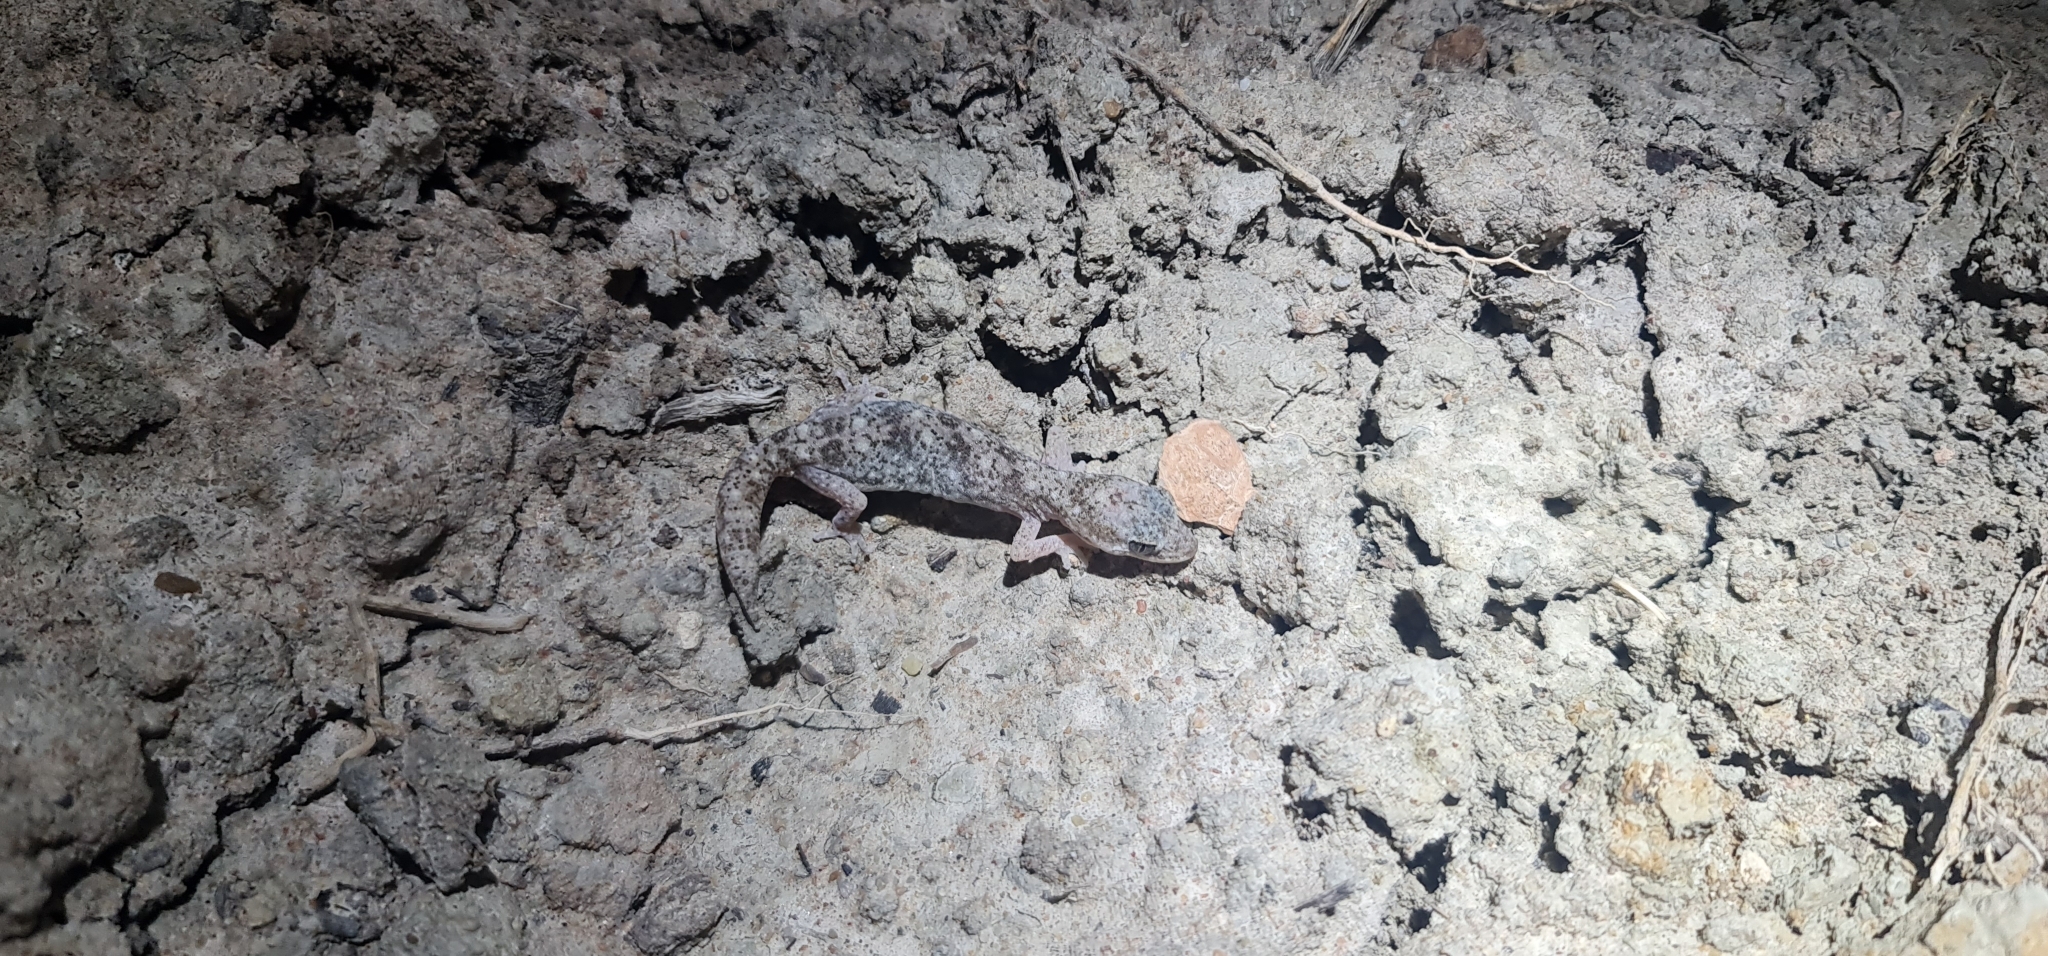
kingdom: Animalia
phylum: Chordata
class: Squamata
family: Diplodactylidae
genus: Diplodactylus
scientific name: Diplodactylus tessellatus
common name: Tesselated gecko
